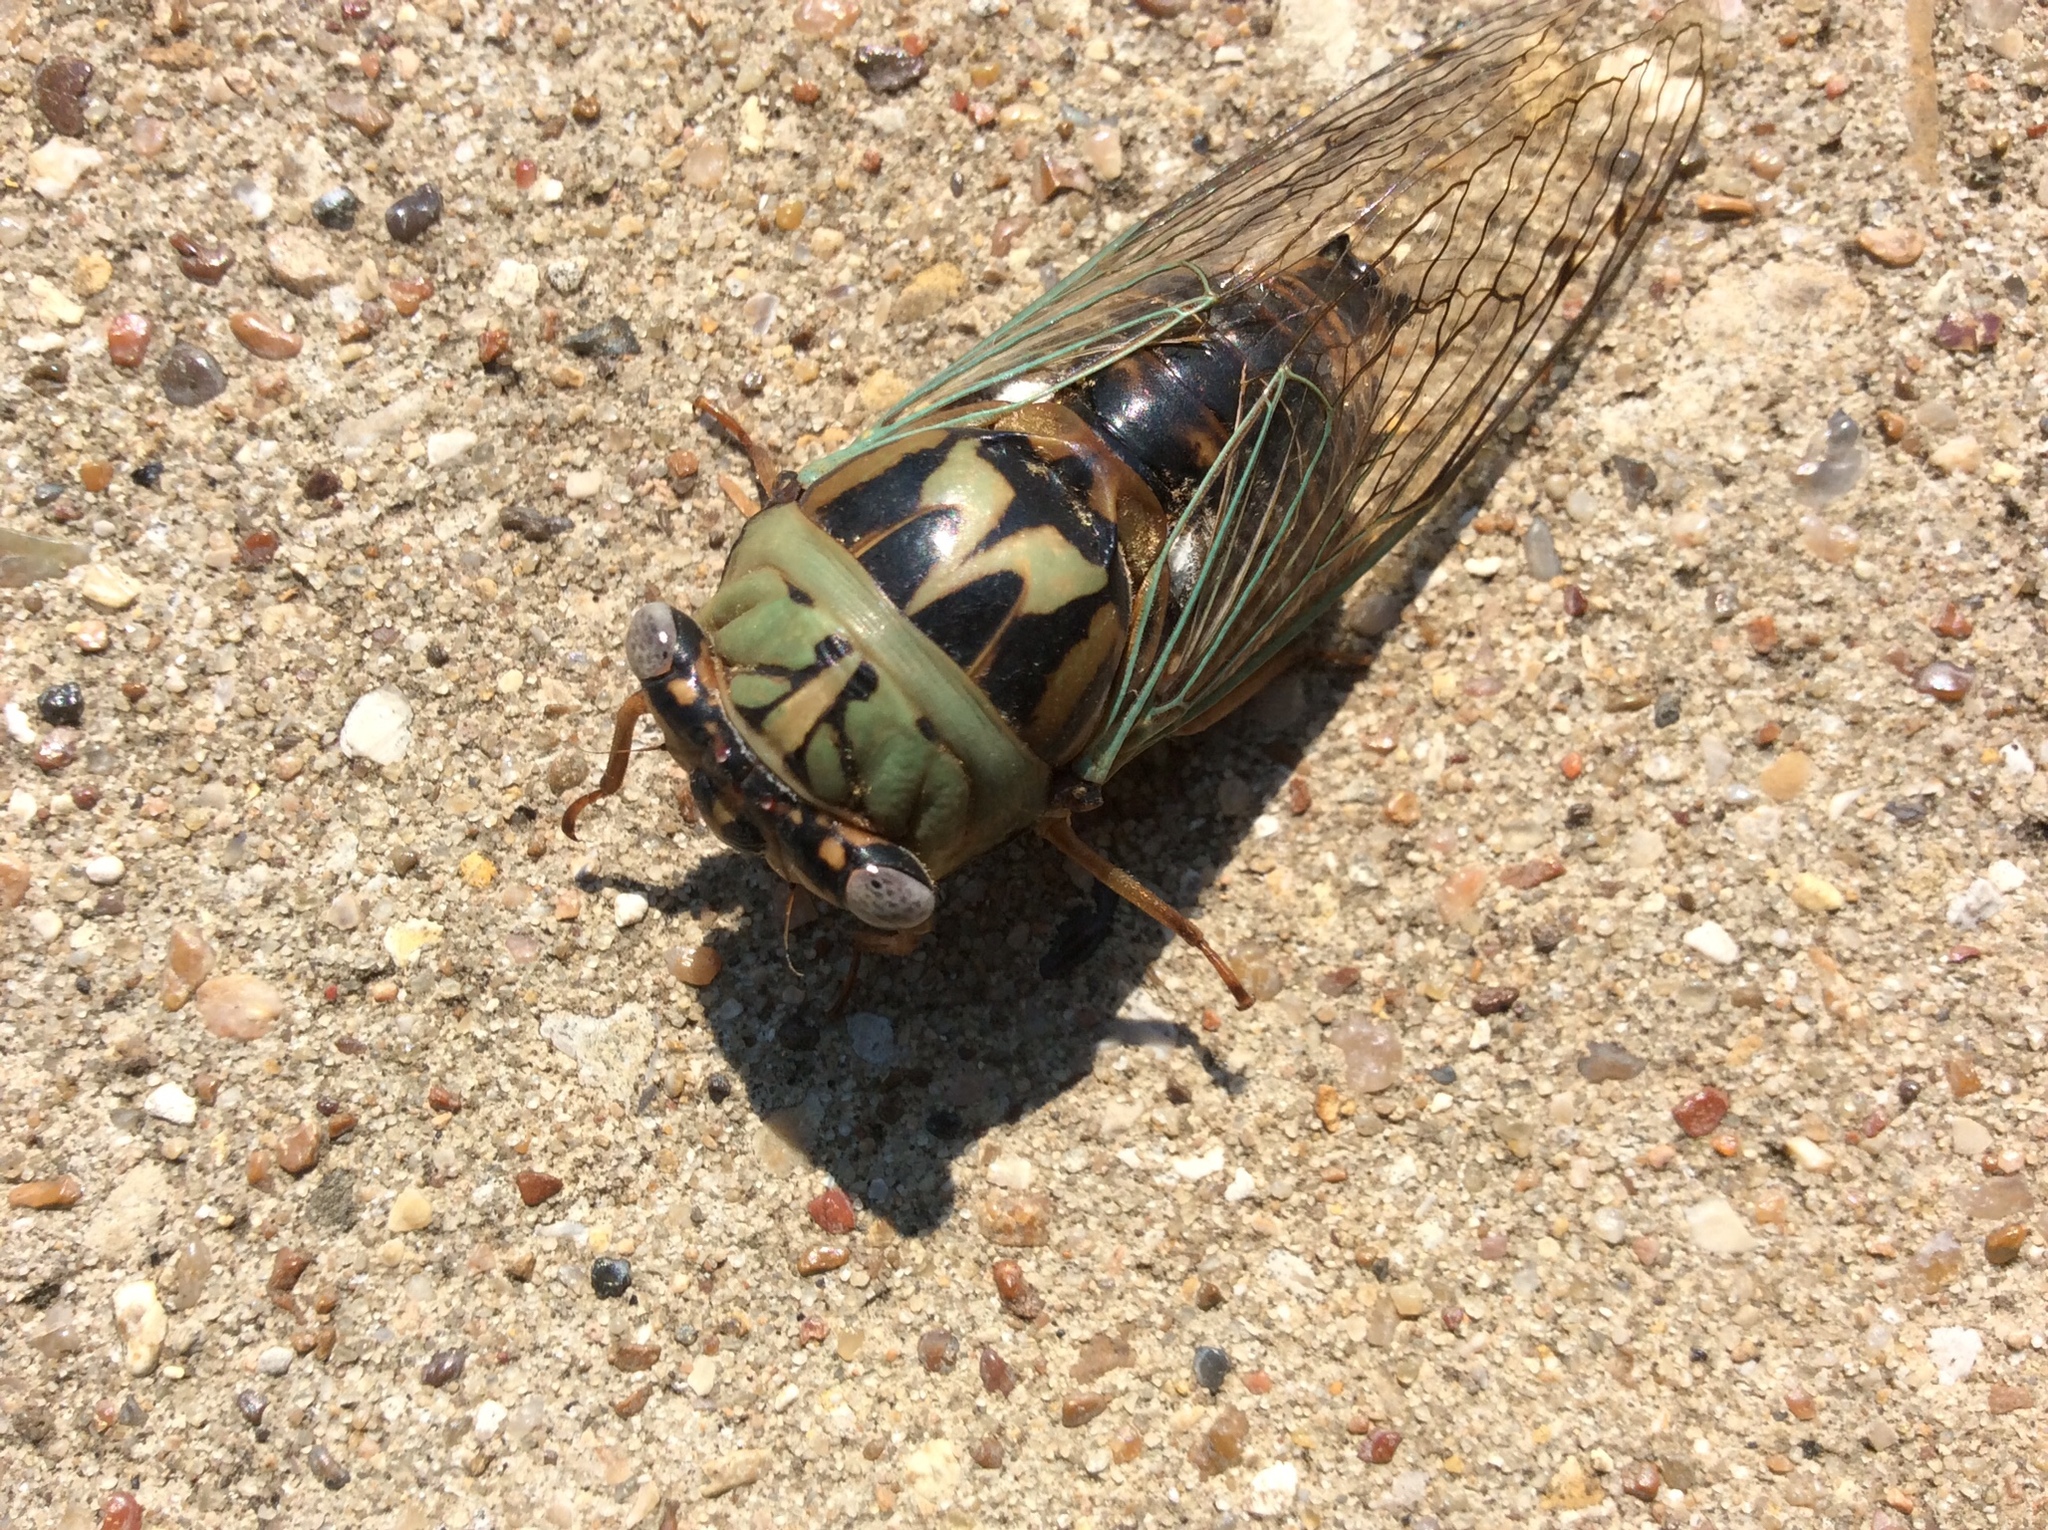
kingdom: Animalia
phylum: Arthropoda
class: Insecta
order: Hemiptera
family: Cicadidae
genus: Megatibicen
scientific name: Megatibicen resh
